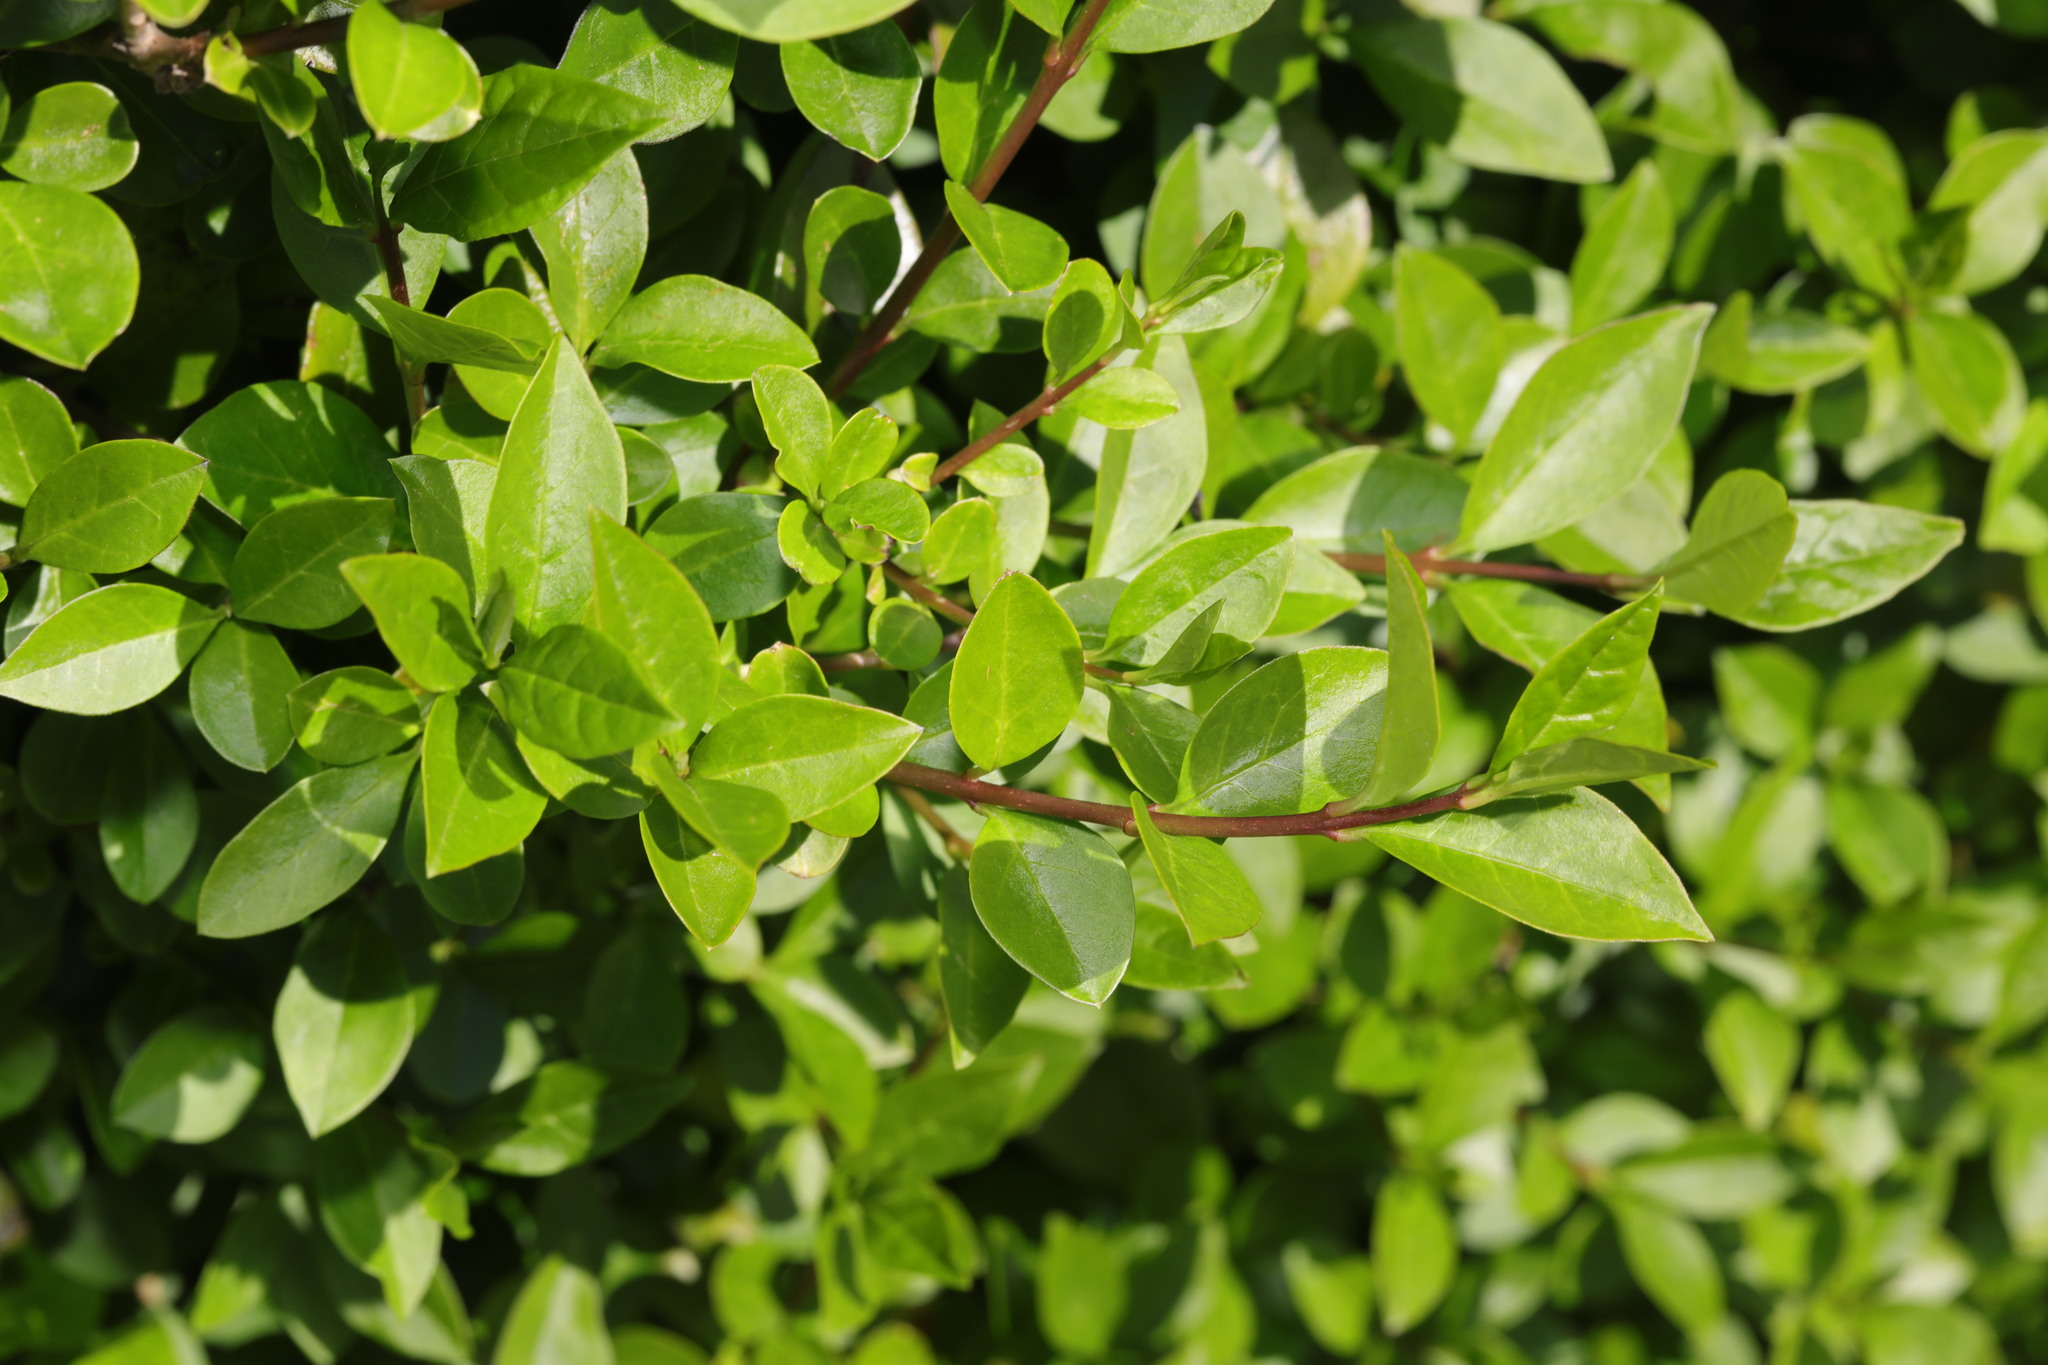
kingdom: Plantae
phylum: Tracheophyta
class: Magnoliopsida
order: Lamiales
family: Oleaceae
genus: Ligustrum
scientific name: Ligustrum ovalifolium
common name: California privet
